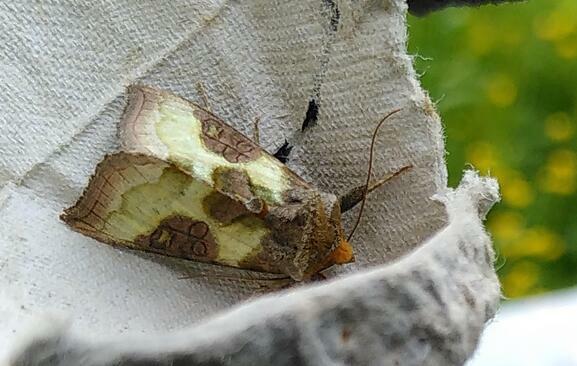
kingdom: Animalia
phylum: Arthropoda
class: Insecta
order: Lepidoptera
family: Noctuidae
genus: Diachrysia
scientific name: Diachrysia chrysitis
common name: Burnished brass
